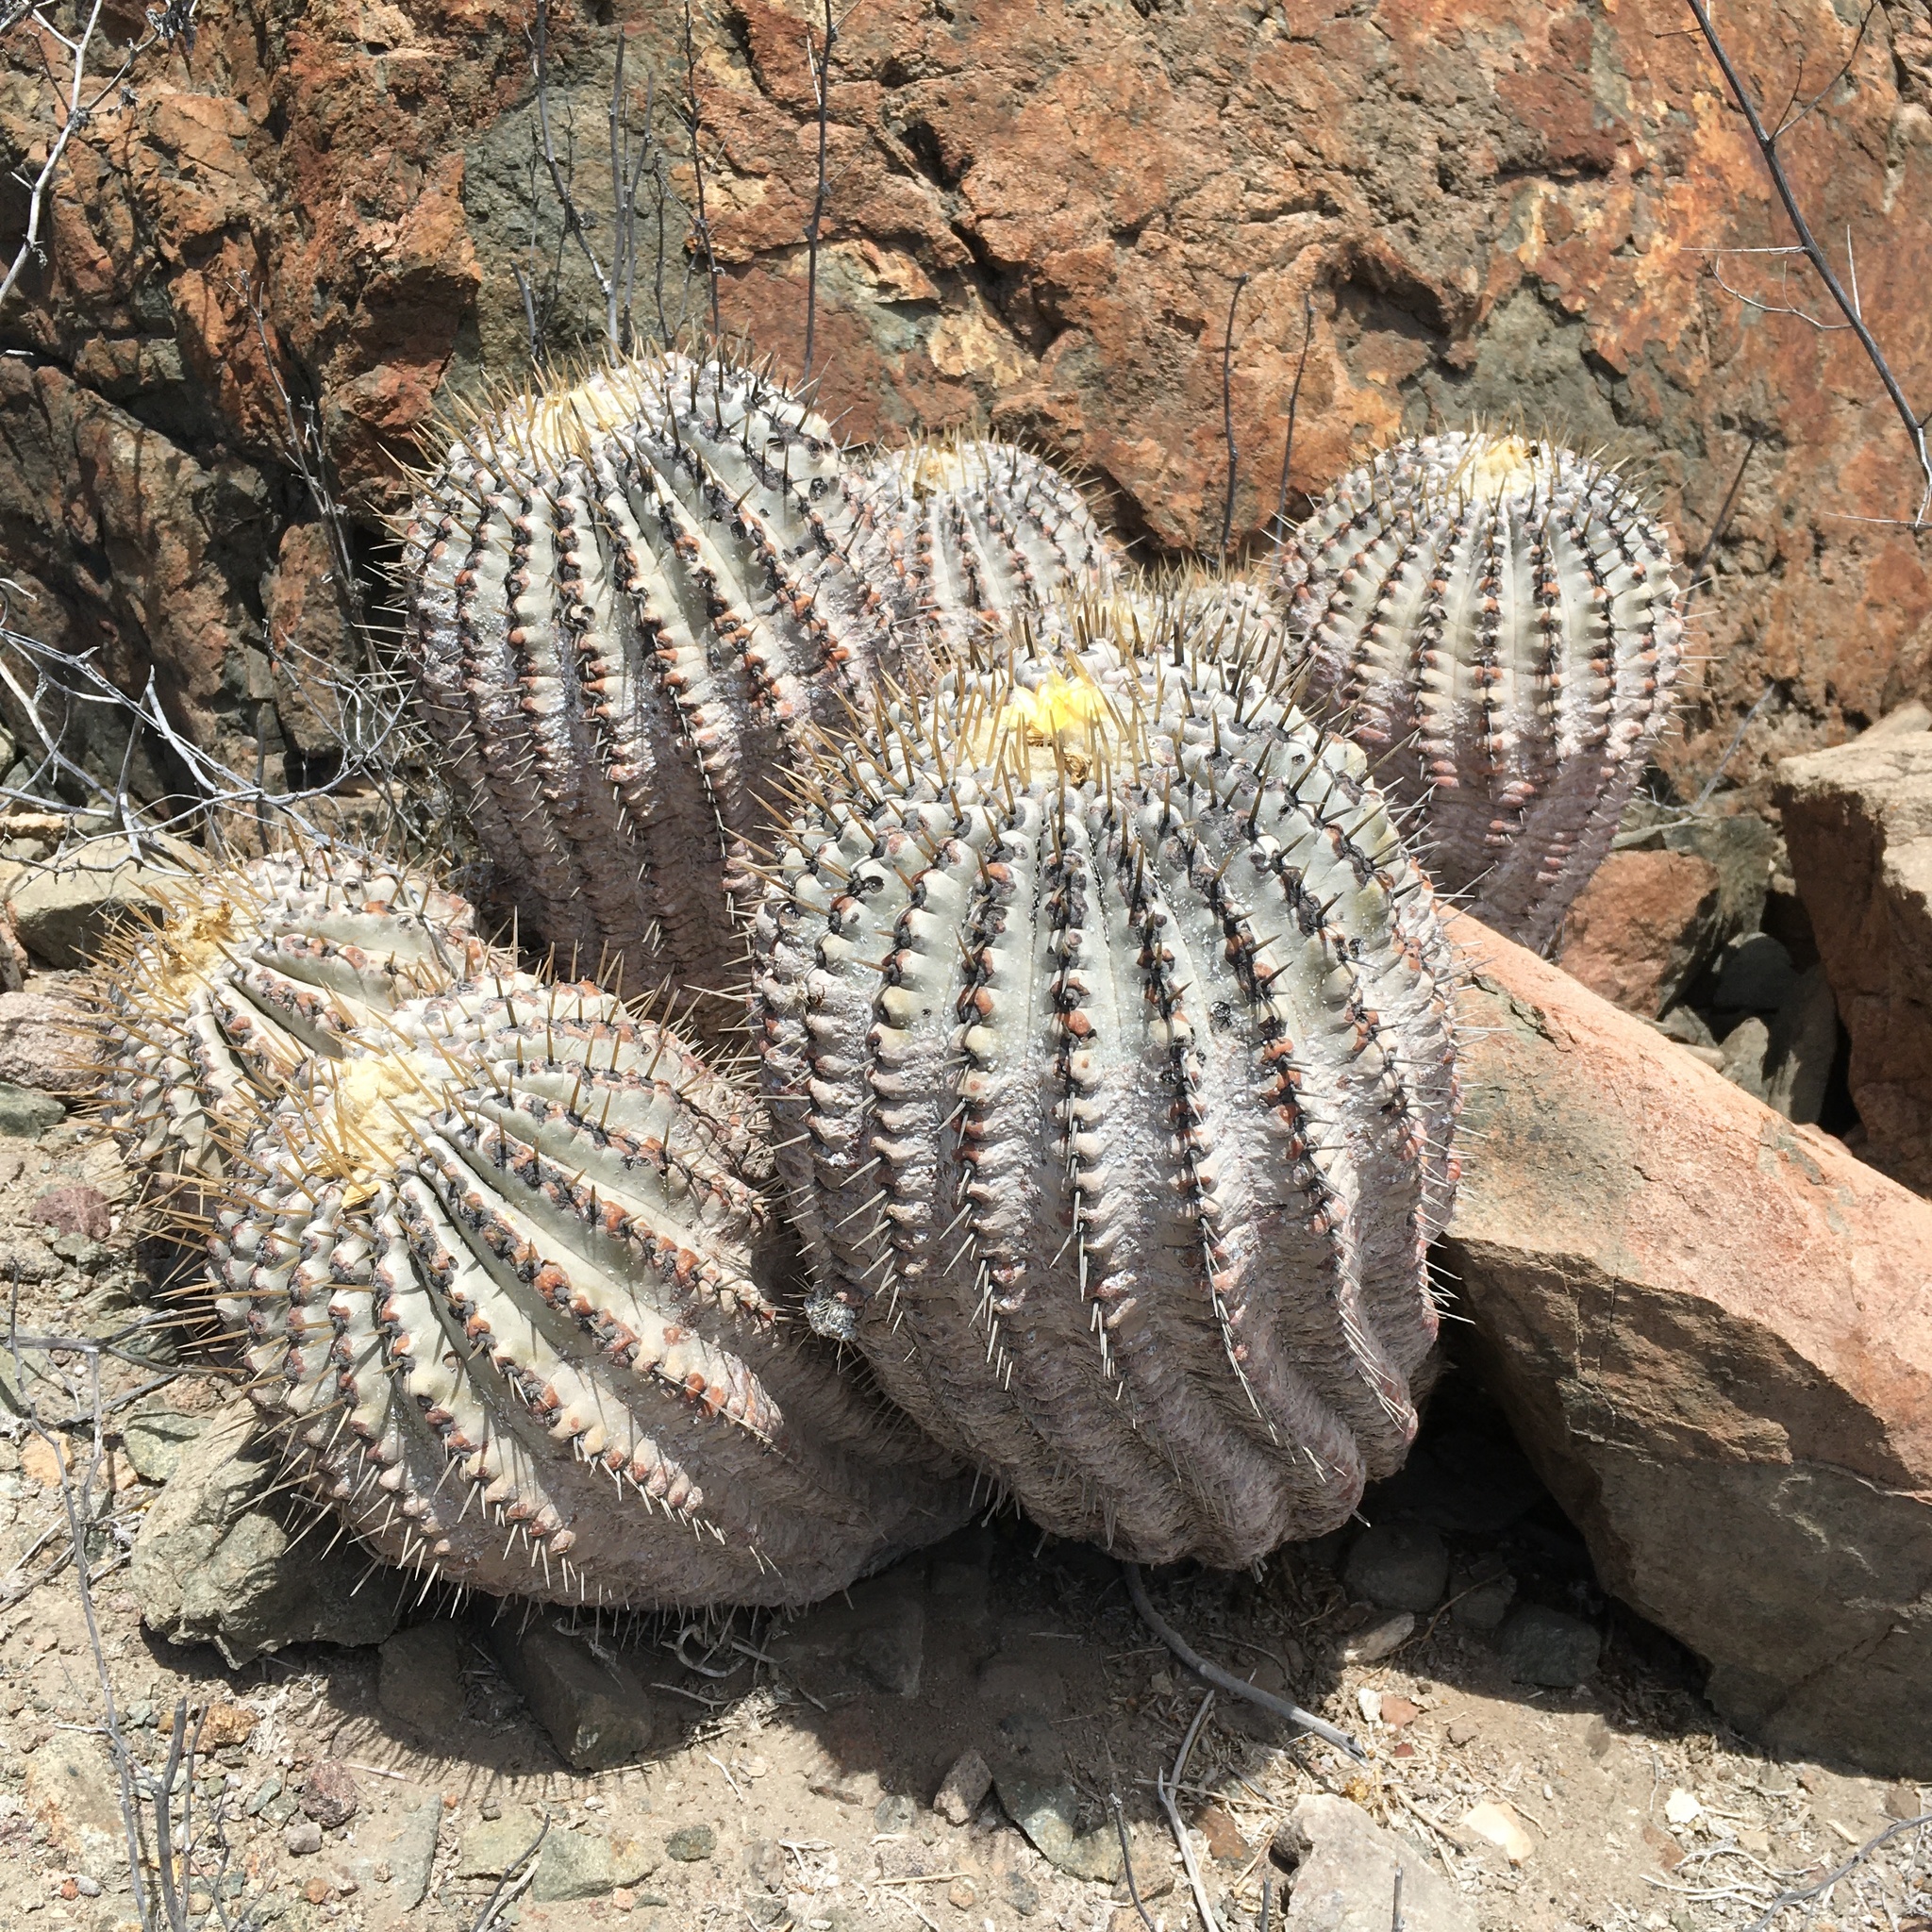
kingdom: Plantae
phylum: Tracheophyta
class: Magnoliopsida
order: Caryophyllales
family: Cactaceae
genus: Copiapoa
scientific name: Copiapoa cinerea
